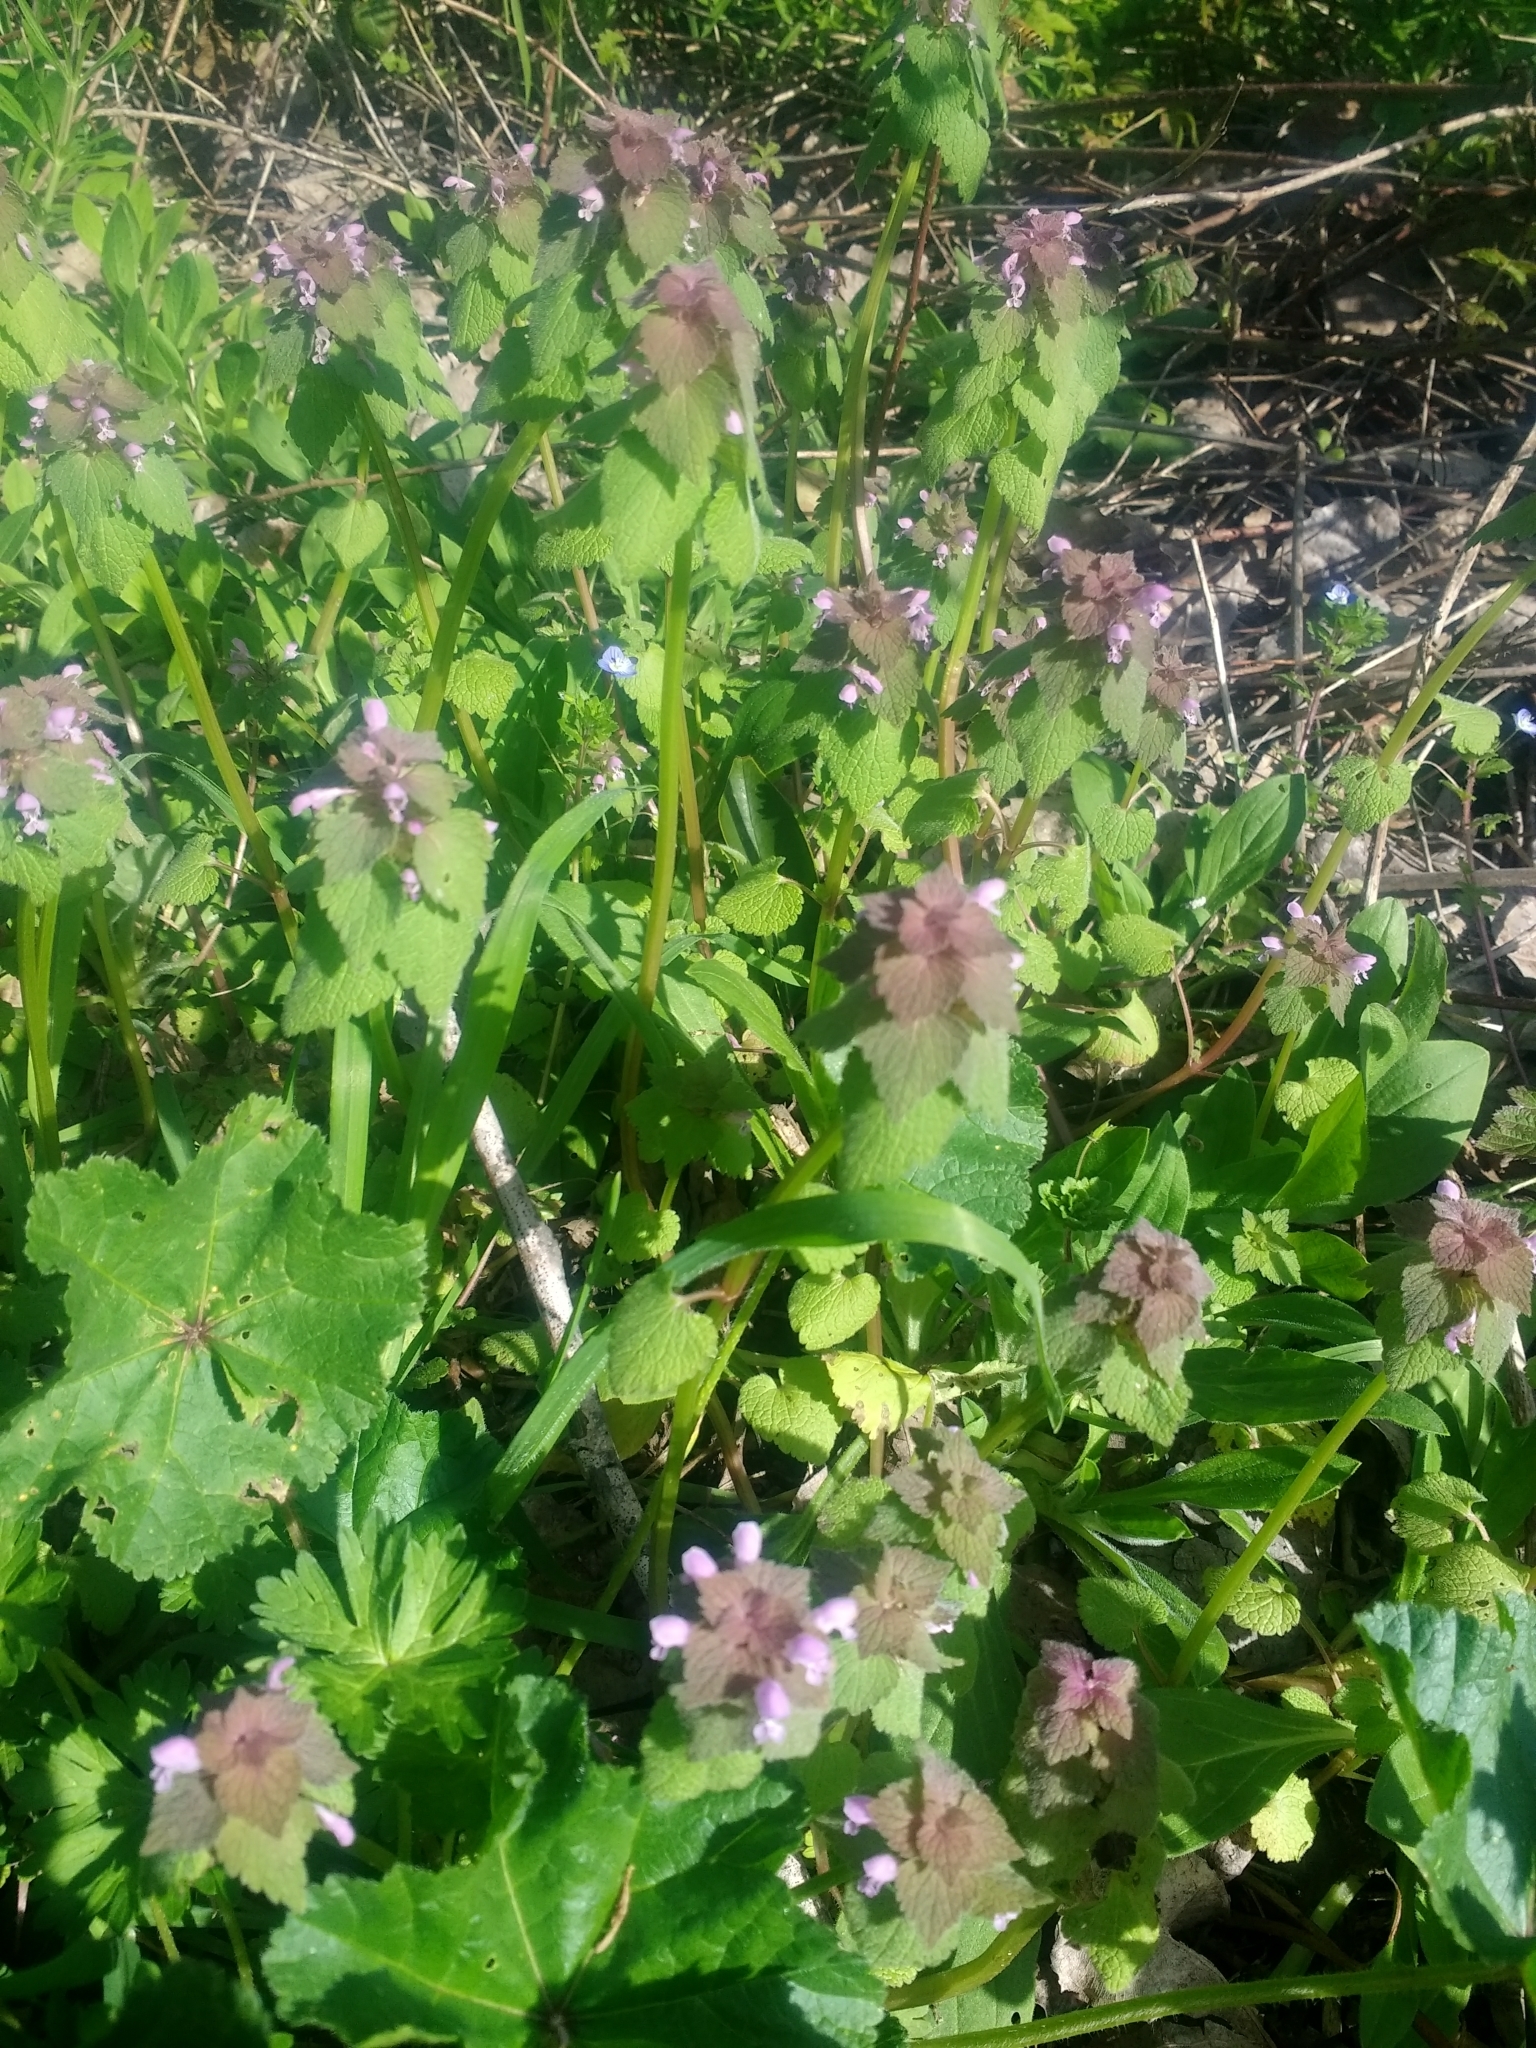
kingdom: Plantae
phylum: Tracheophyta
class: Magnoliopsida
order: Lamiales
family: Lamiaceae
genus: Lamium
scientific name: Lamium purpureum
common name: Red dead-nettle
